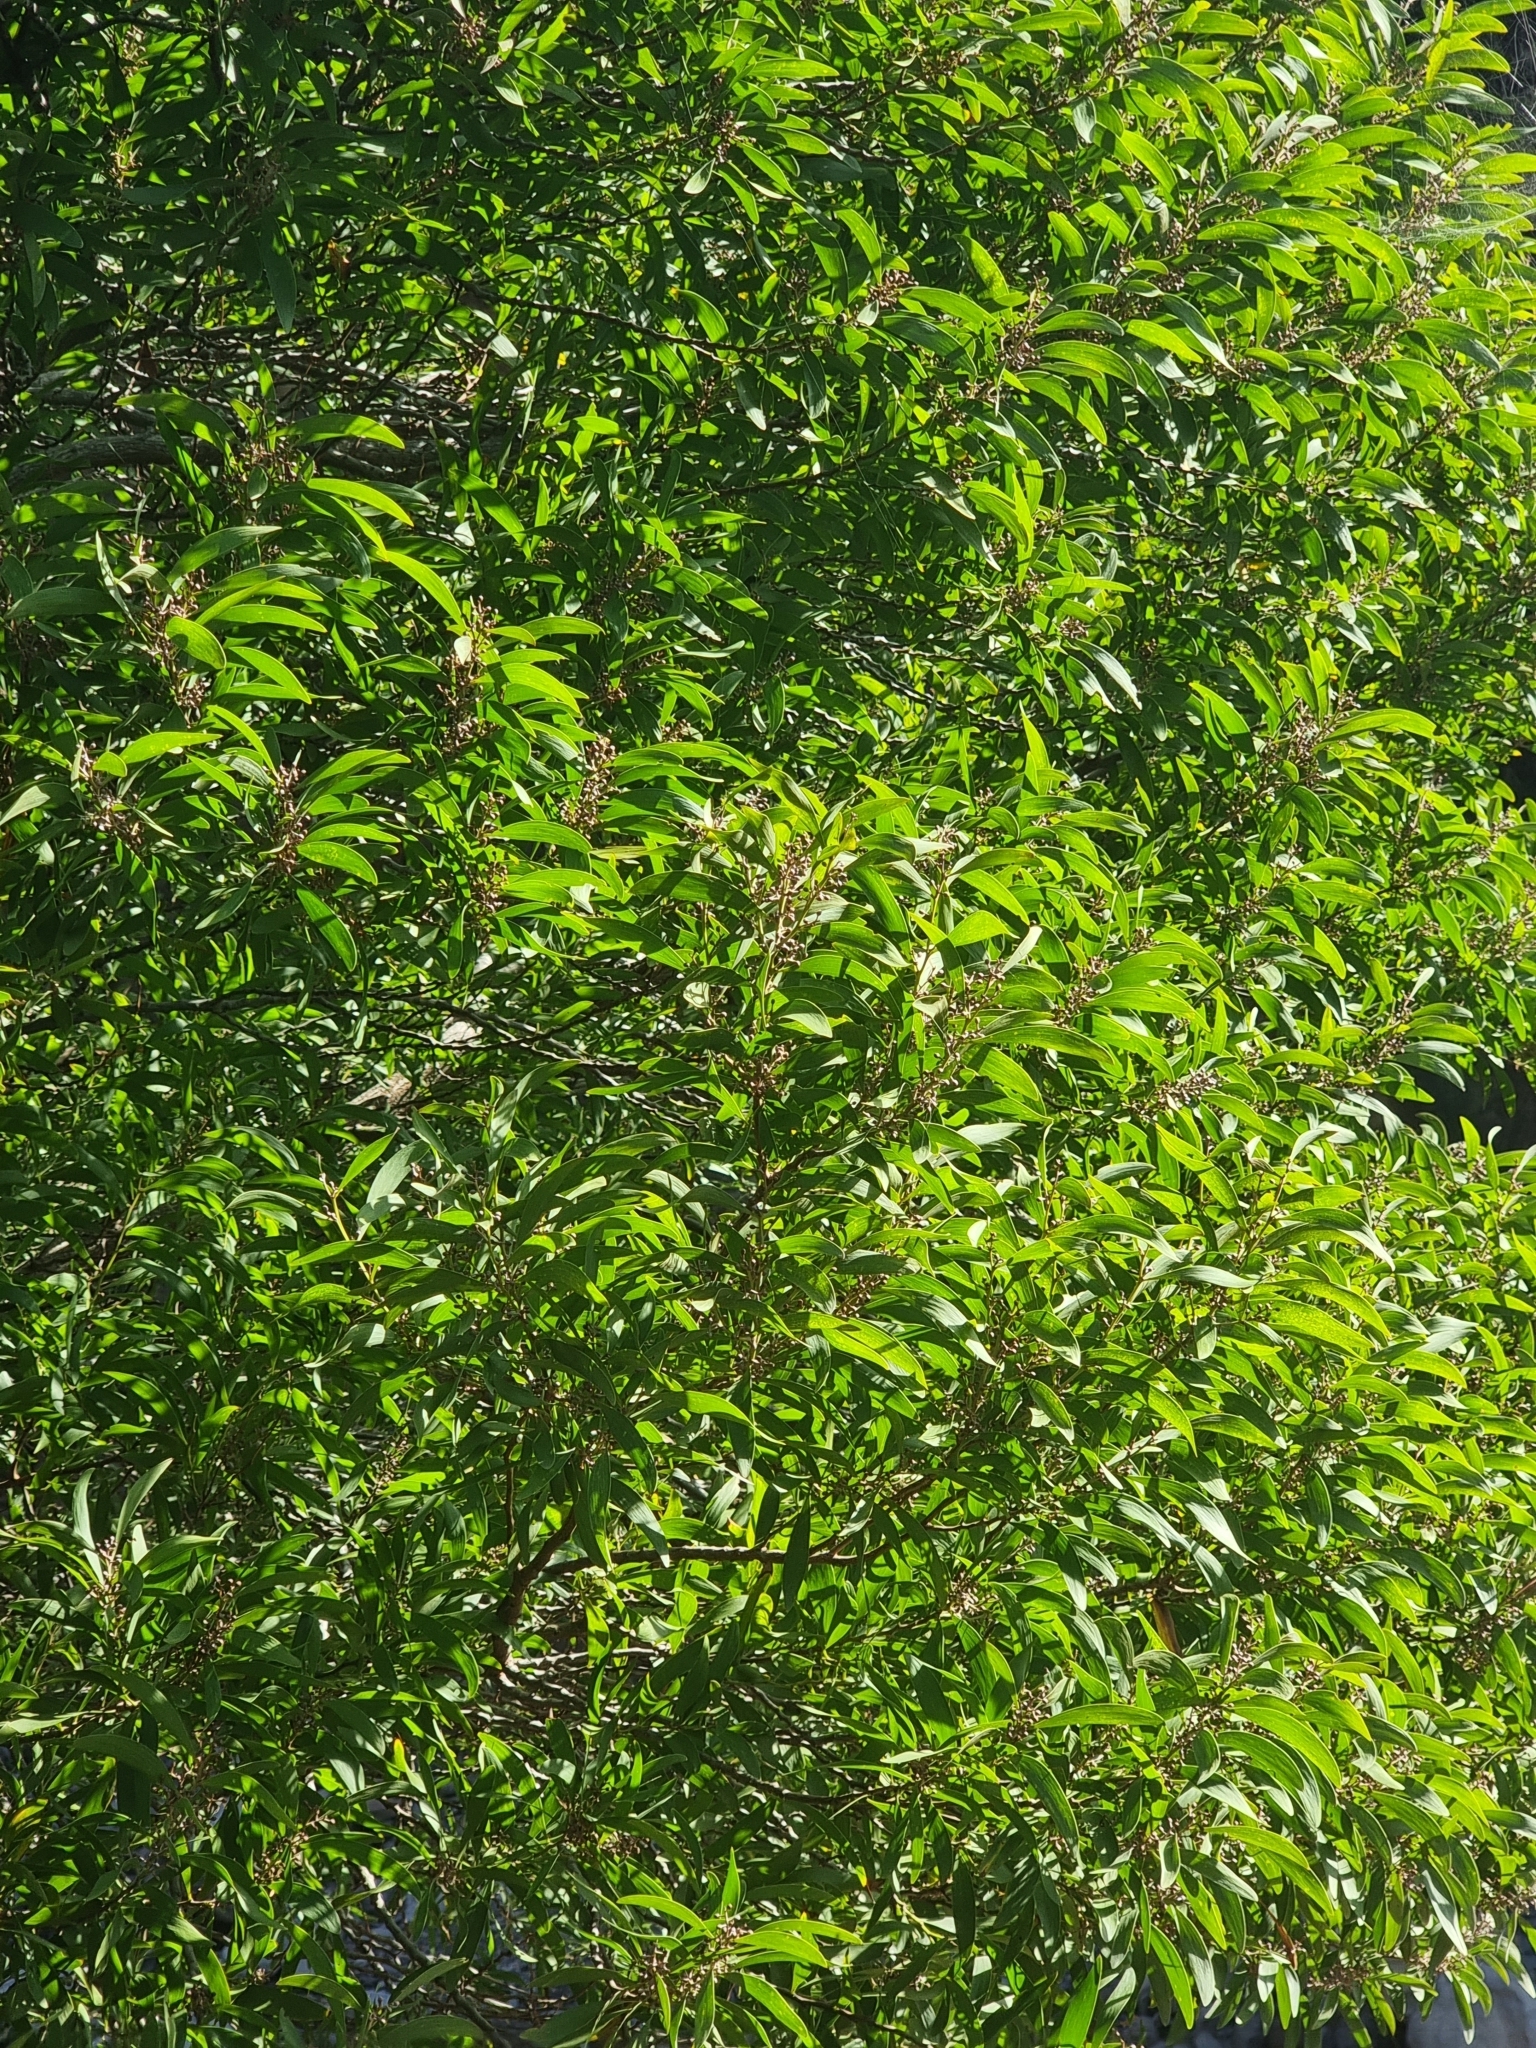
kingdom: Plantae
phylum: Tracheophyta
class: Magnoliopsida
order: Fabales
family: Fabaceae
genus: Acacia
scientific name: Acacia melanoxylon
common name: Blackwood
